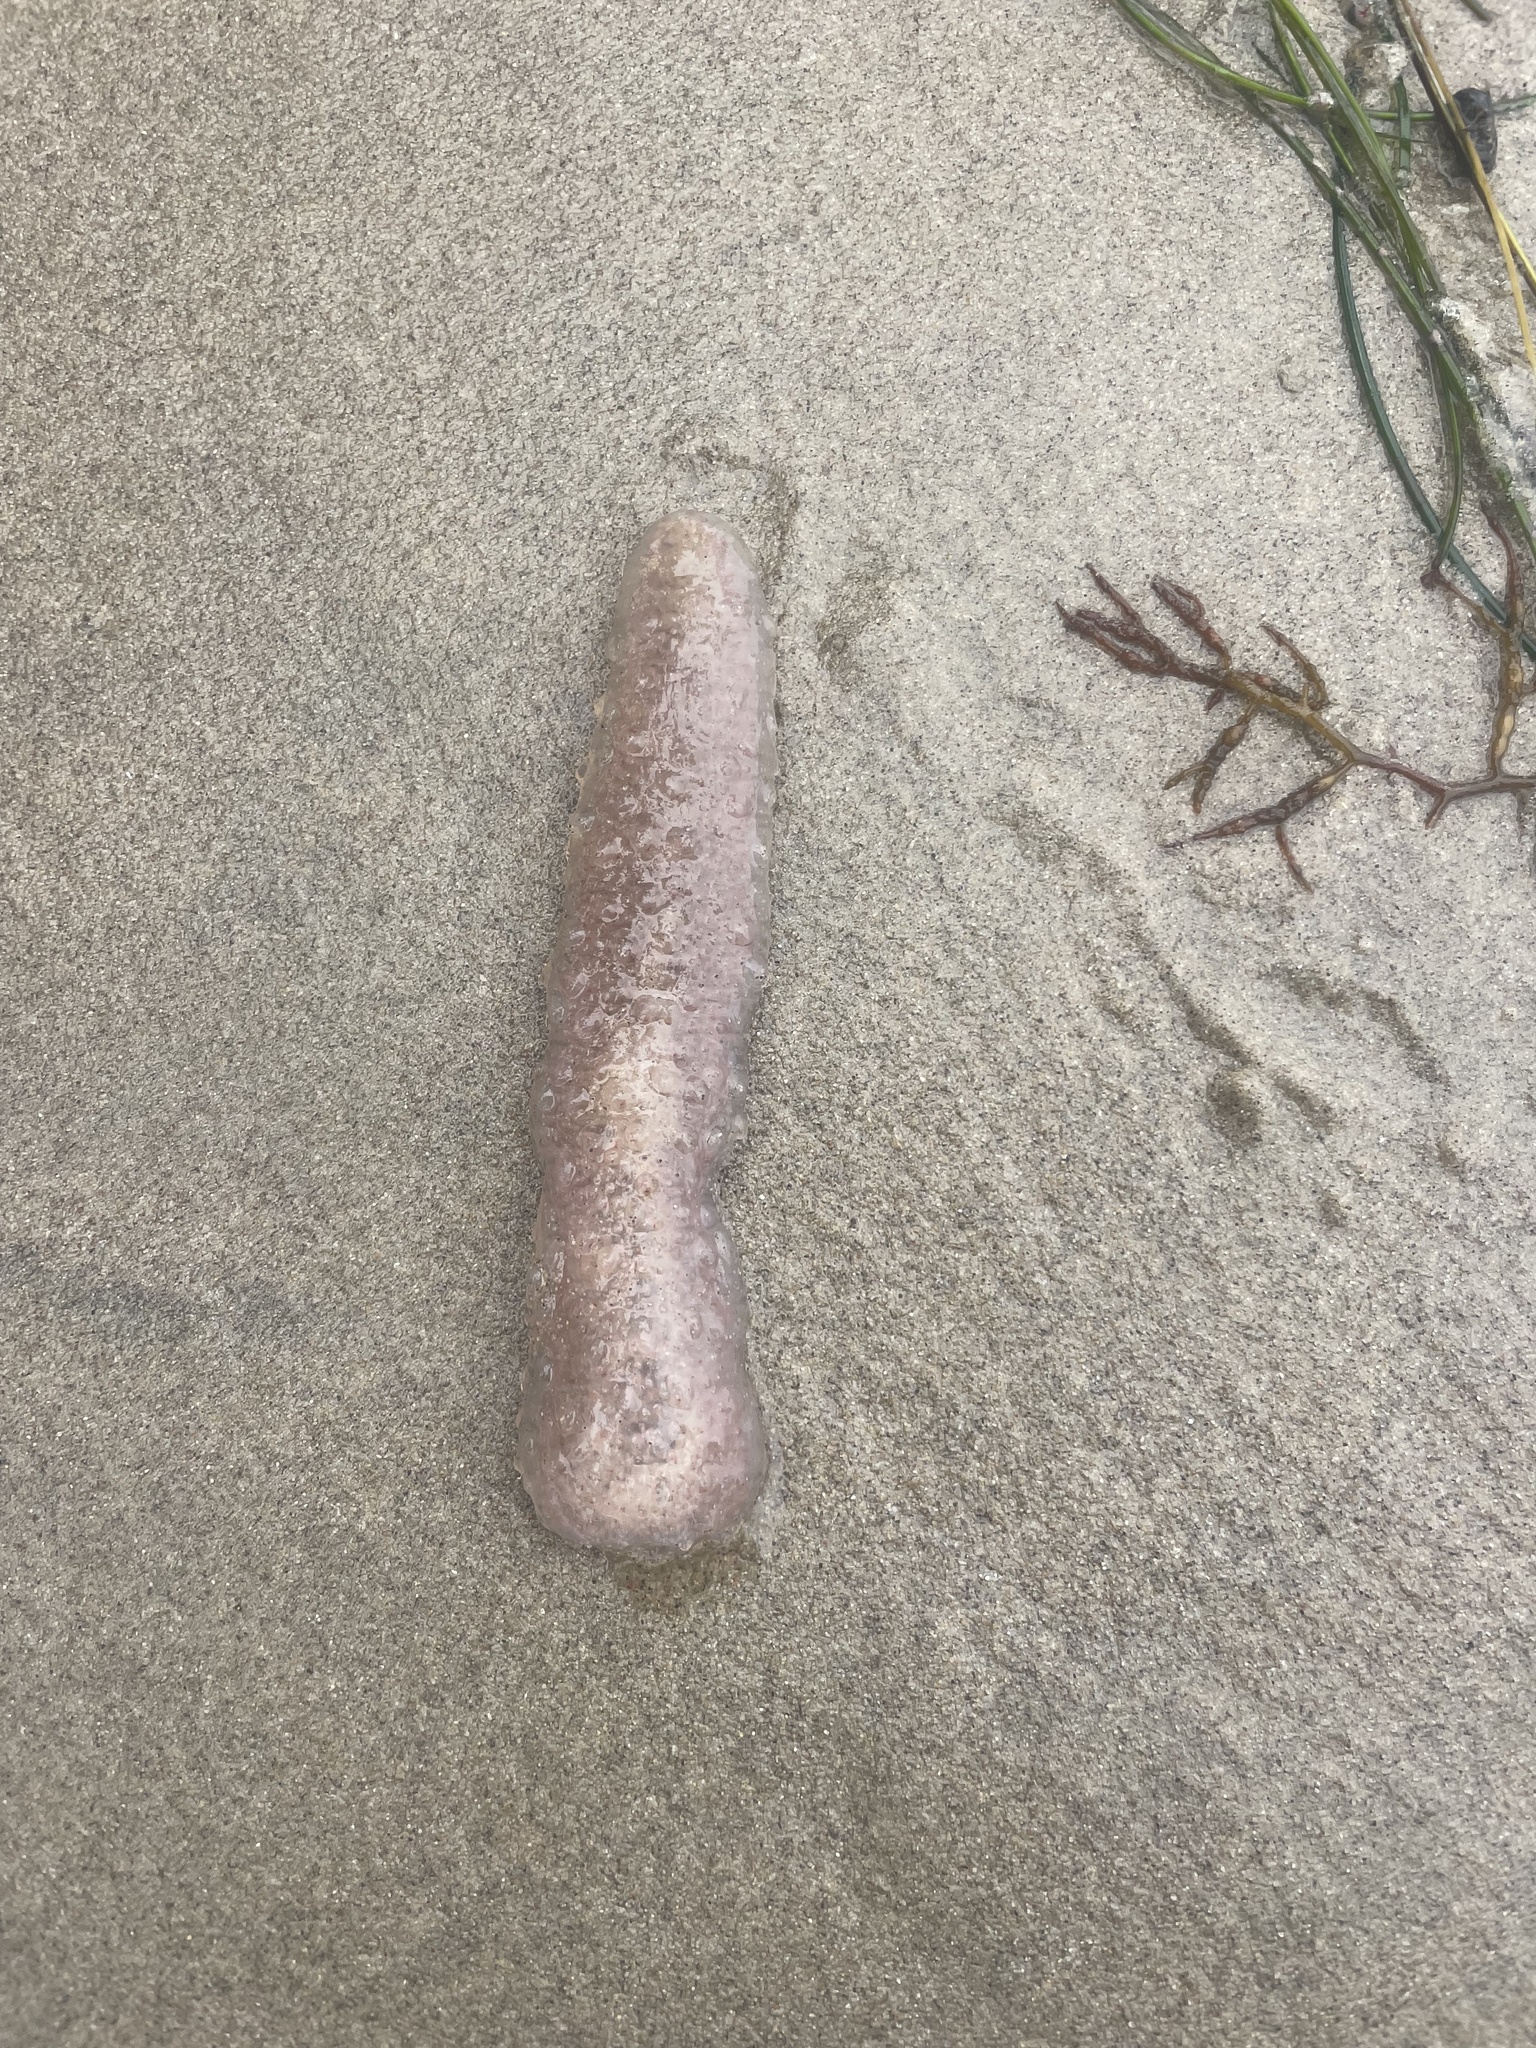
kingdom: Animalia
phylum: Chordata
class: Thaliacea
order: Pyrosomatida
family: Pyrosomatidae
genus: Pyrosoma
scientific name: Pyrosoma atlanticum
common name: Atlantic pyrosomes
